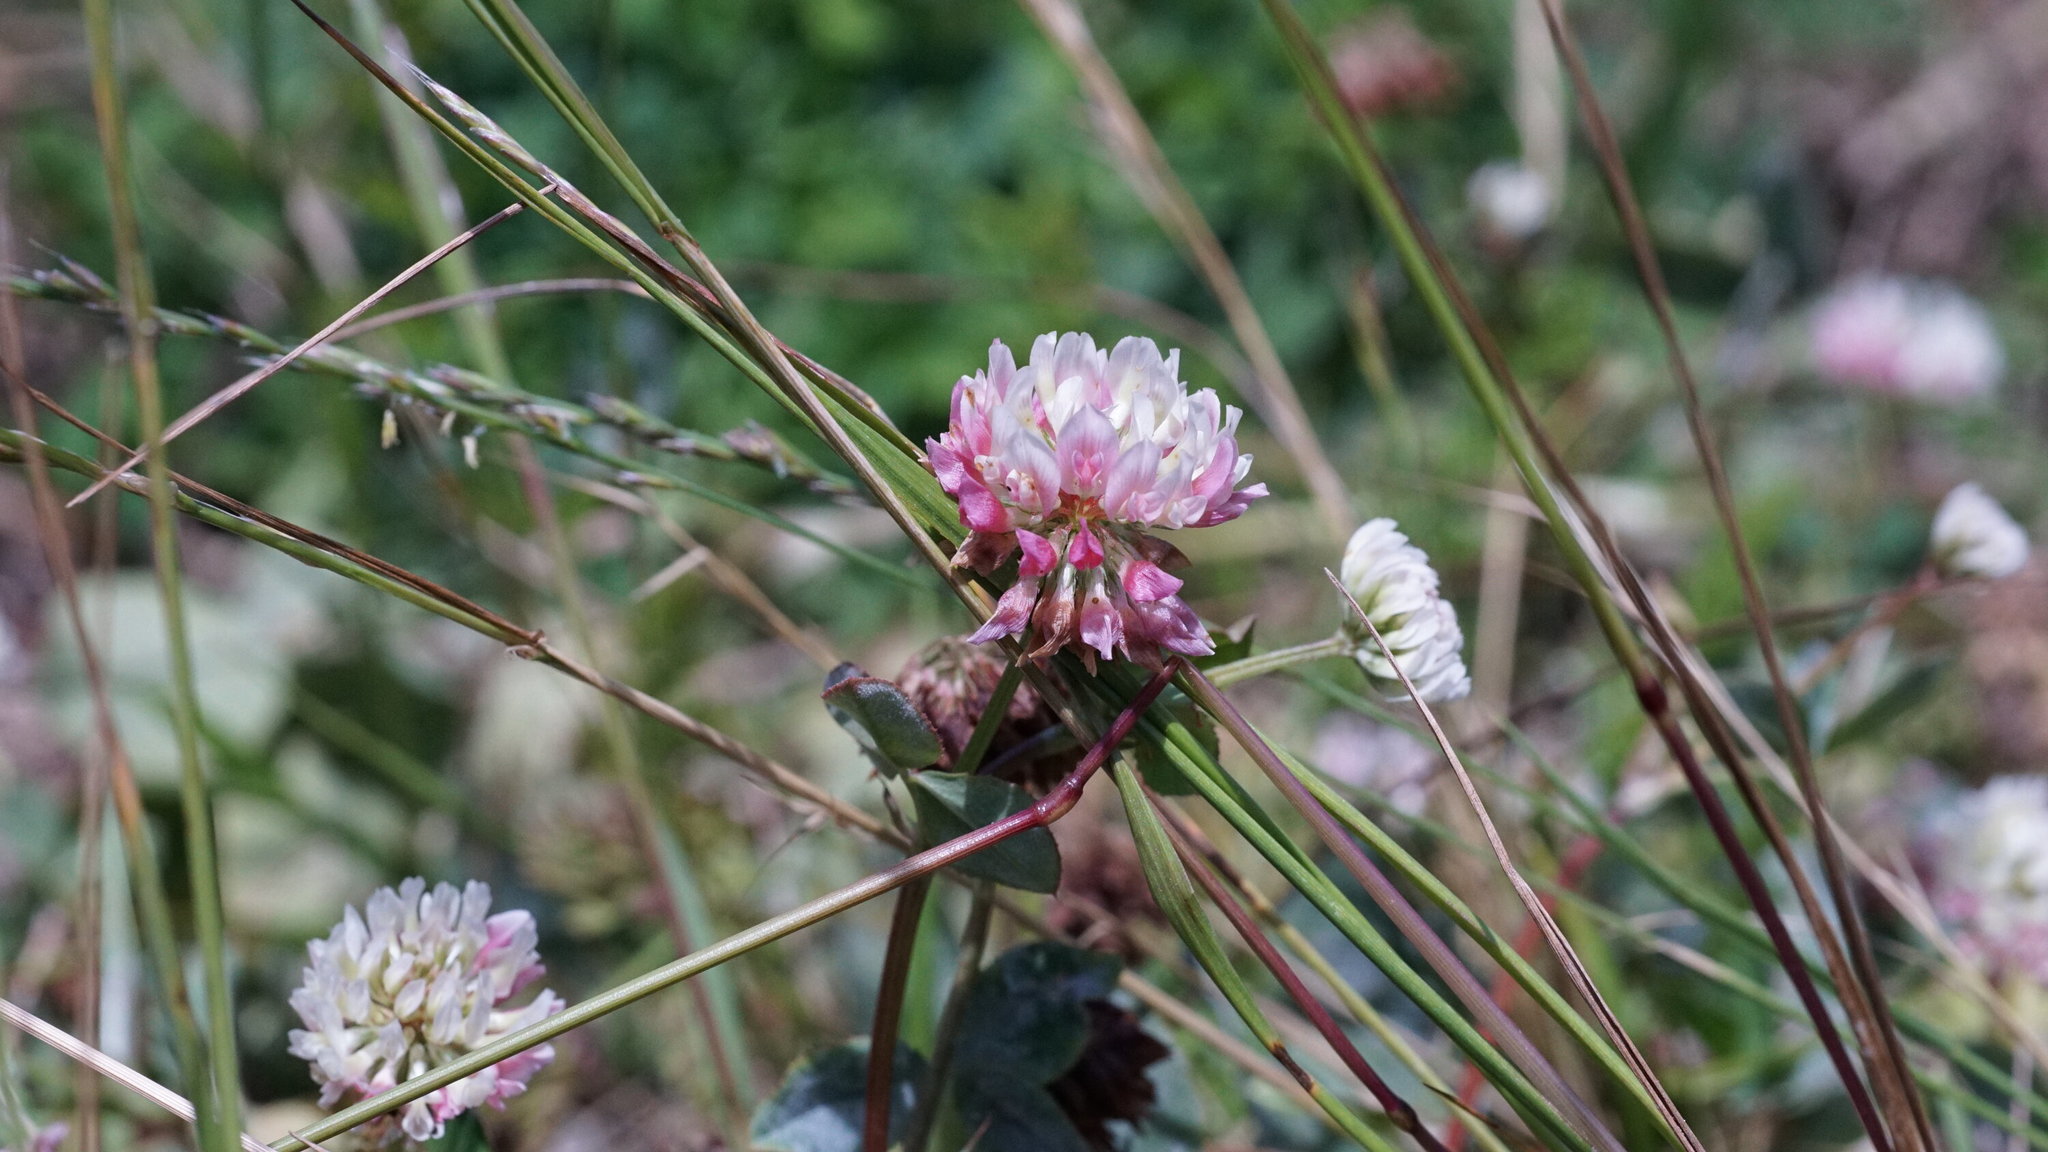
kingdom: Plantae
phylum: Tracheophyta
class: Magnoliopsida
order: Fabales
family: Fabaceae
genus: Trifolium
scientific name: Trifolium hybridum
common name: Alsike clover
